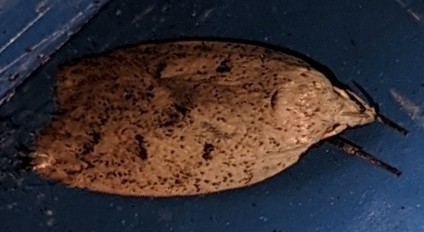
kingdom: Animalia
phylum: Arthropoda
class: Insecta
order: Lepidoptera
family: Peleopodidae
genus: Machimia
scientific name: Machimia tentoriferella
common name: Gold-striped leaftier moth
